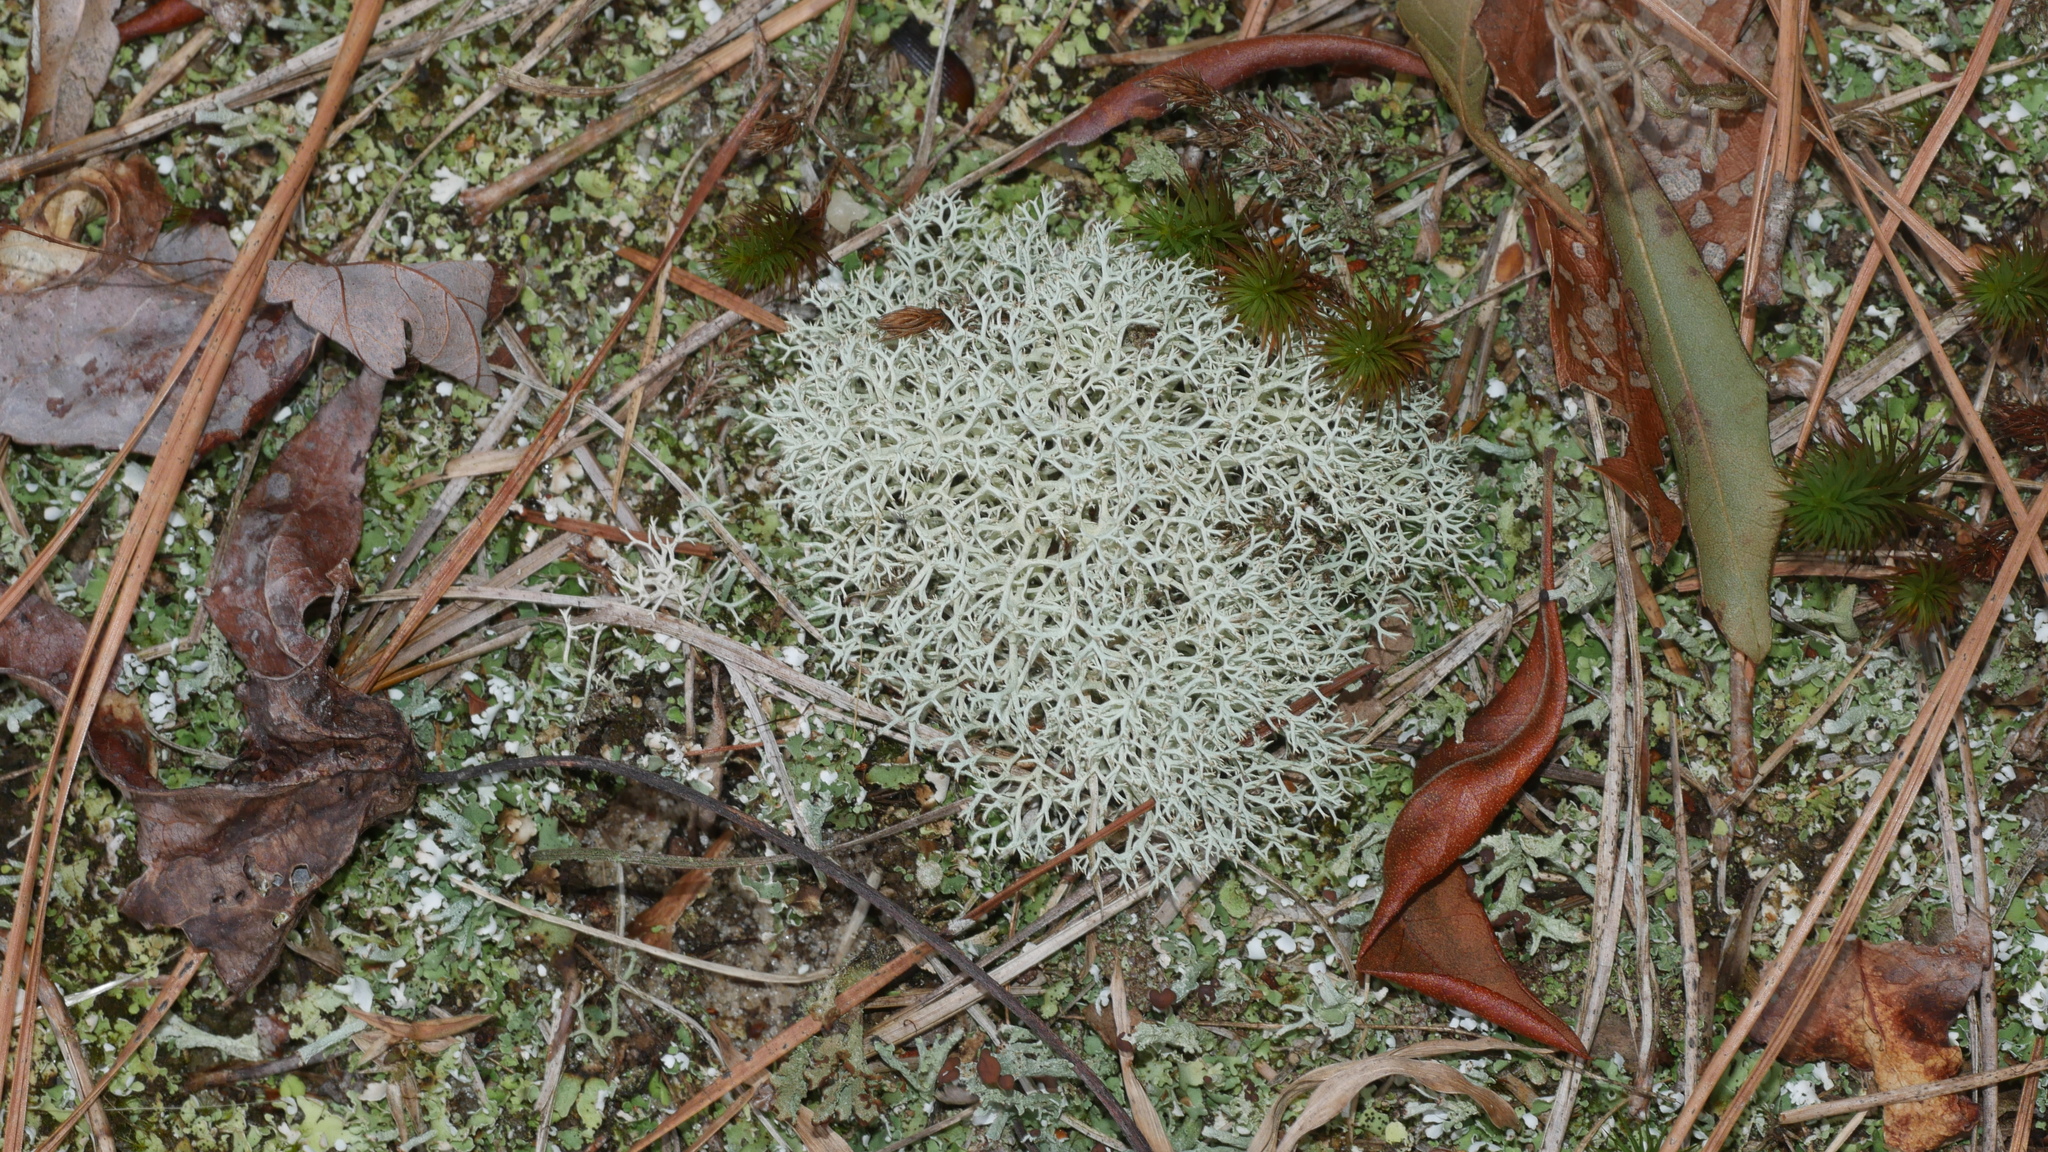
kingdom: Fungi
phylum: Ascomycota
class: Lecanoromycetes
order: Lecanorales
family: Cladoniaceae
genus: Cladonia
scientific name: Cladonia subtenuis
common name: Dixie reindeer lichen
